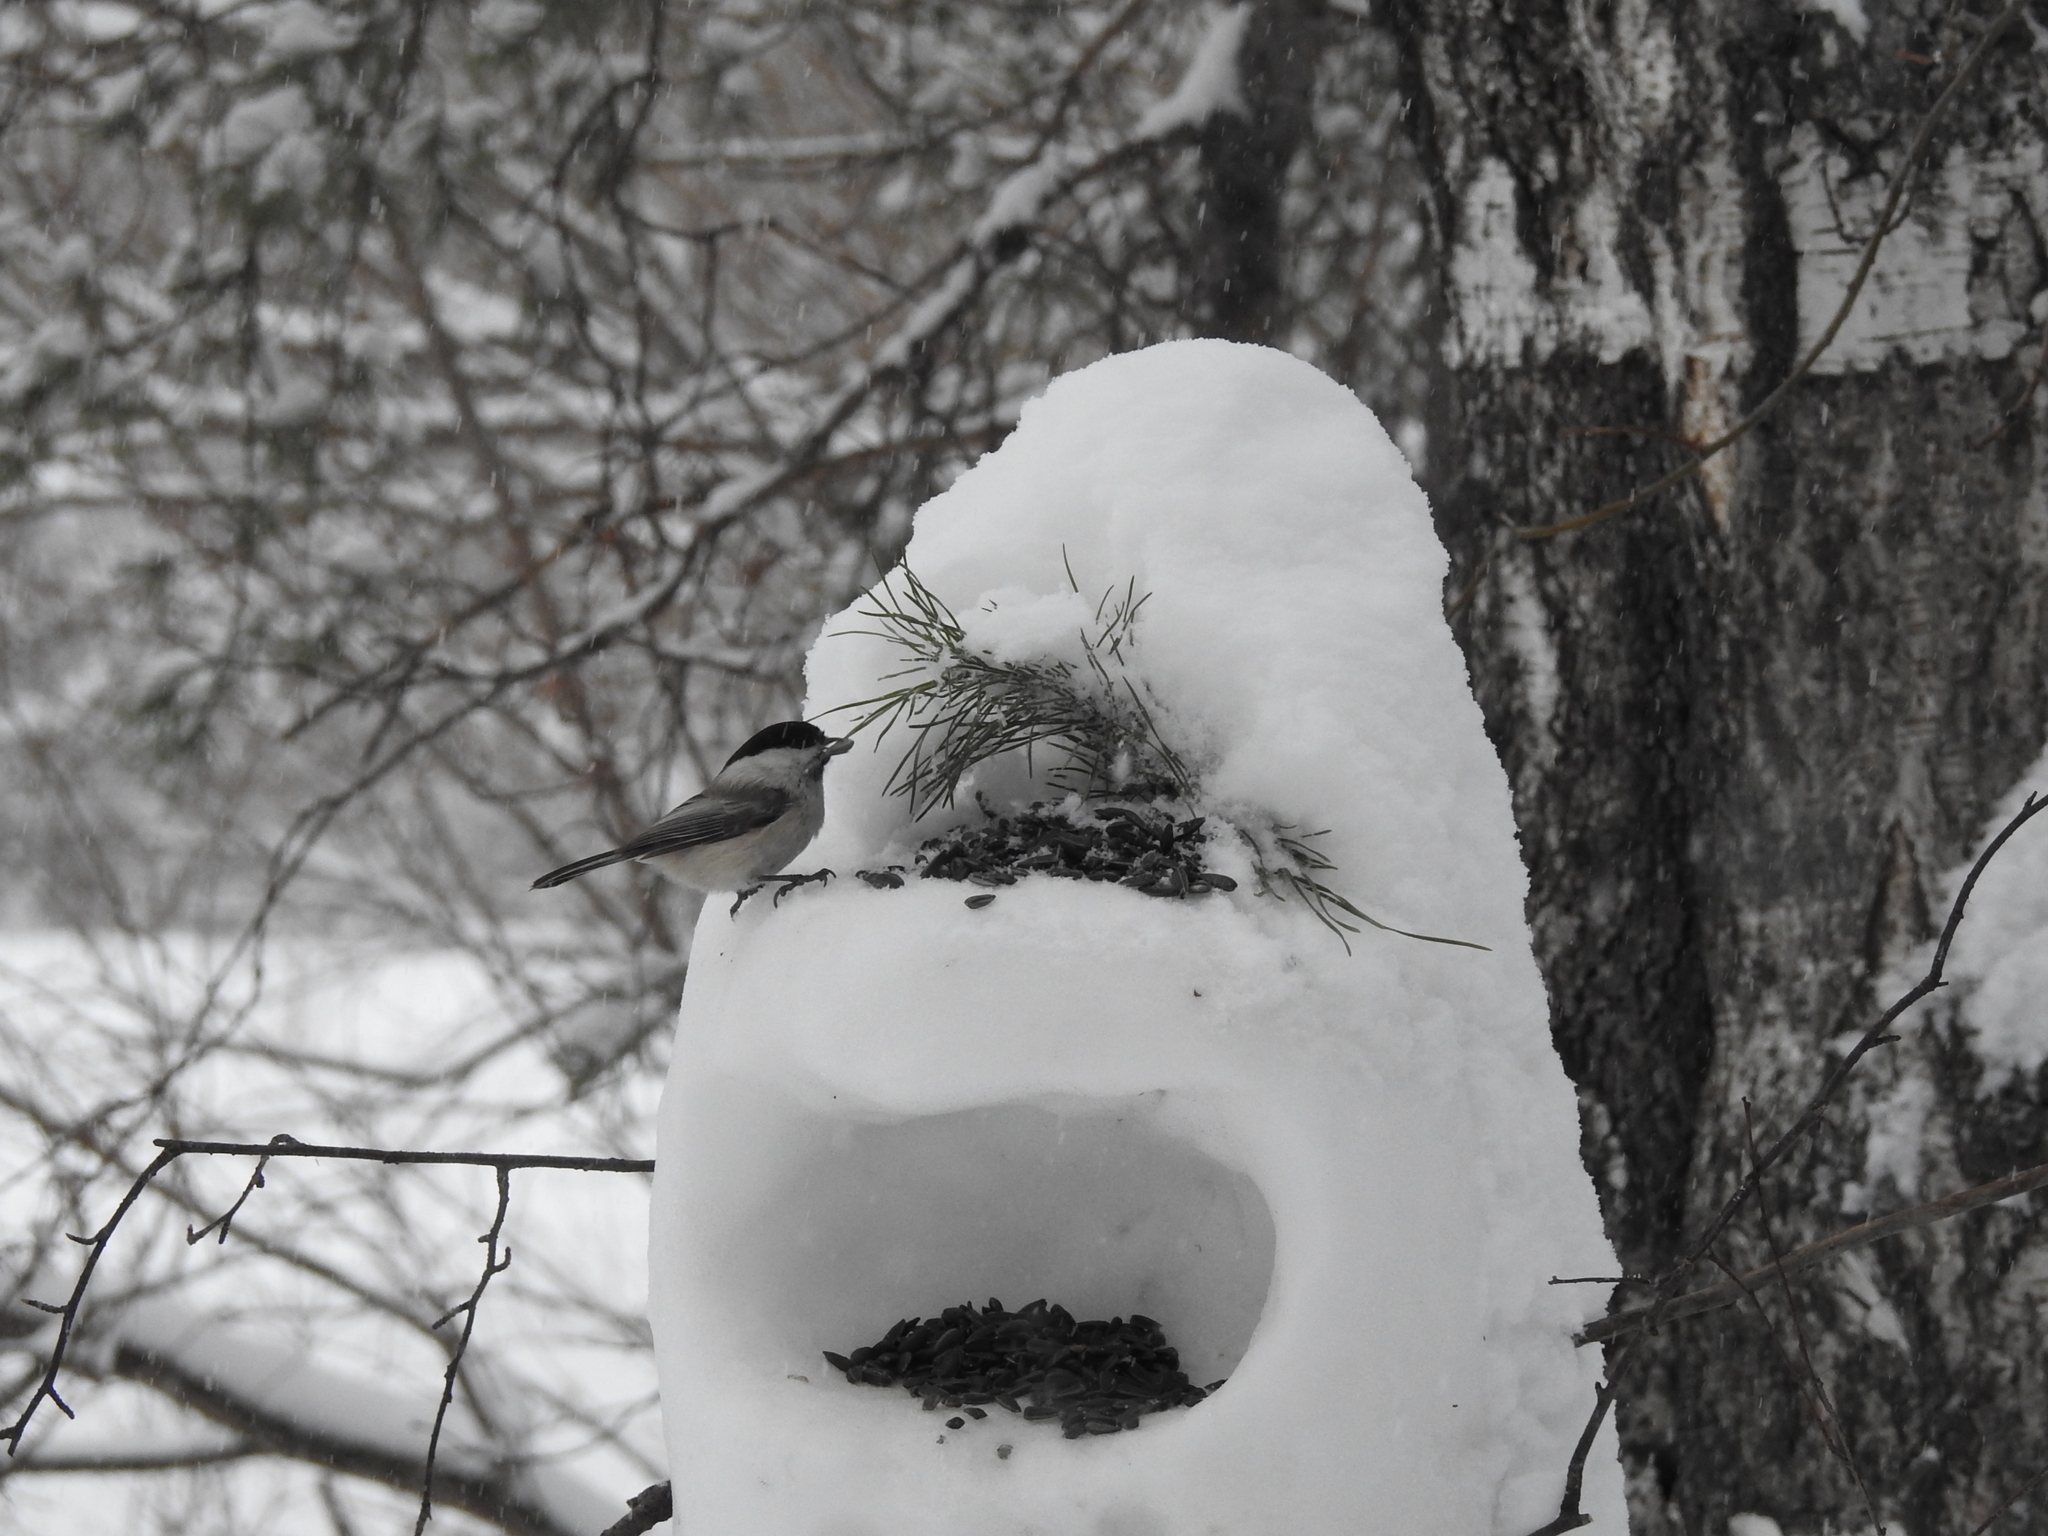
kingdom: Animalia
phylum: Chordata
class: Aves
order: Passeriformes
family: Paridae
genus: Poecile
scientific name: Poecile montanus
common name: Willow tit
